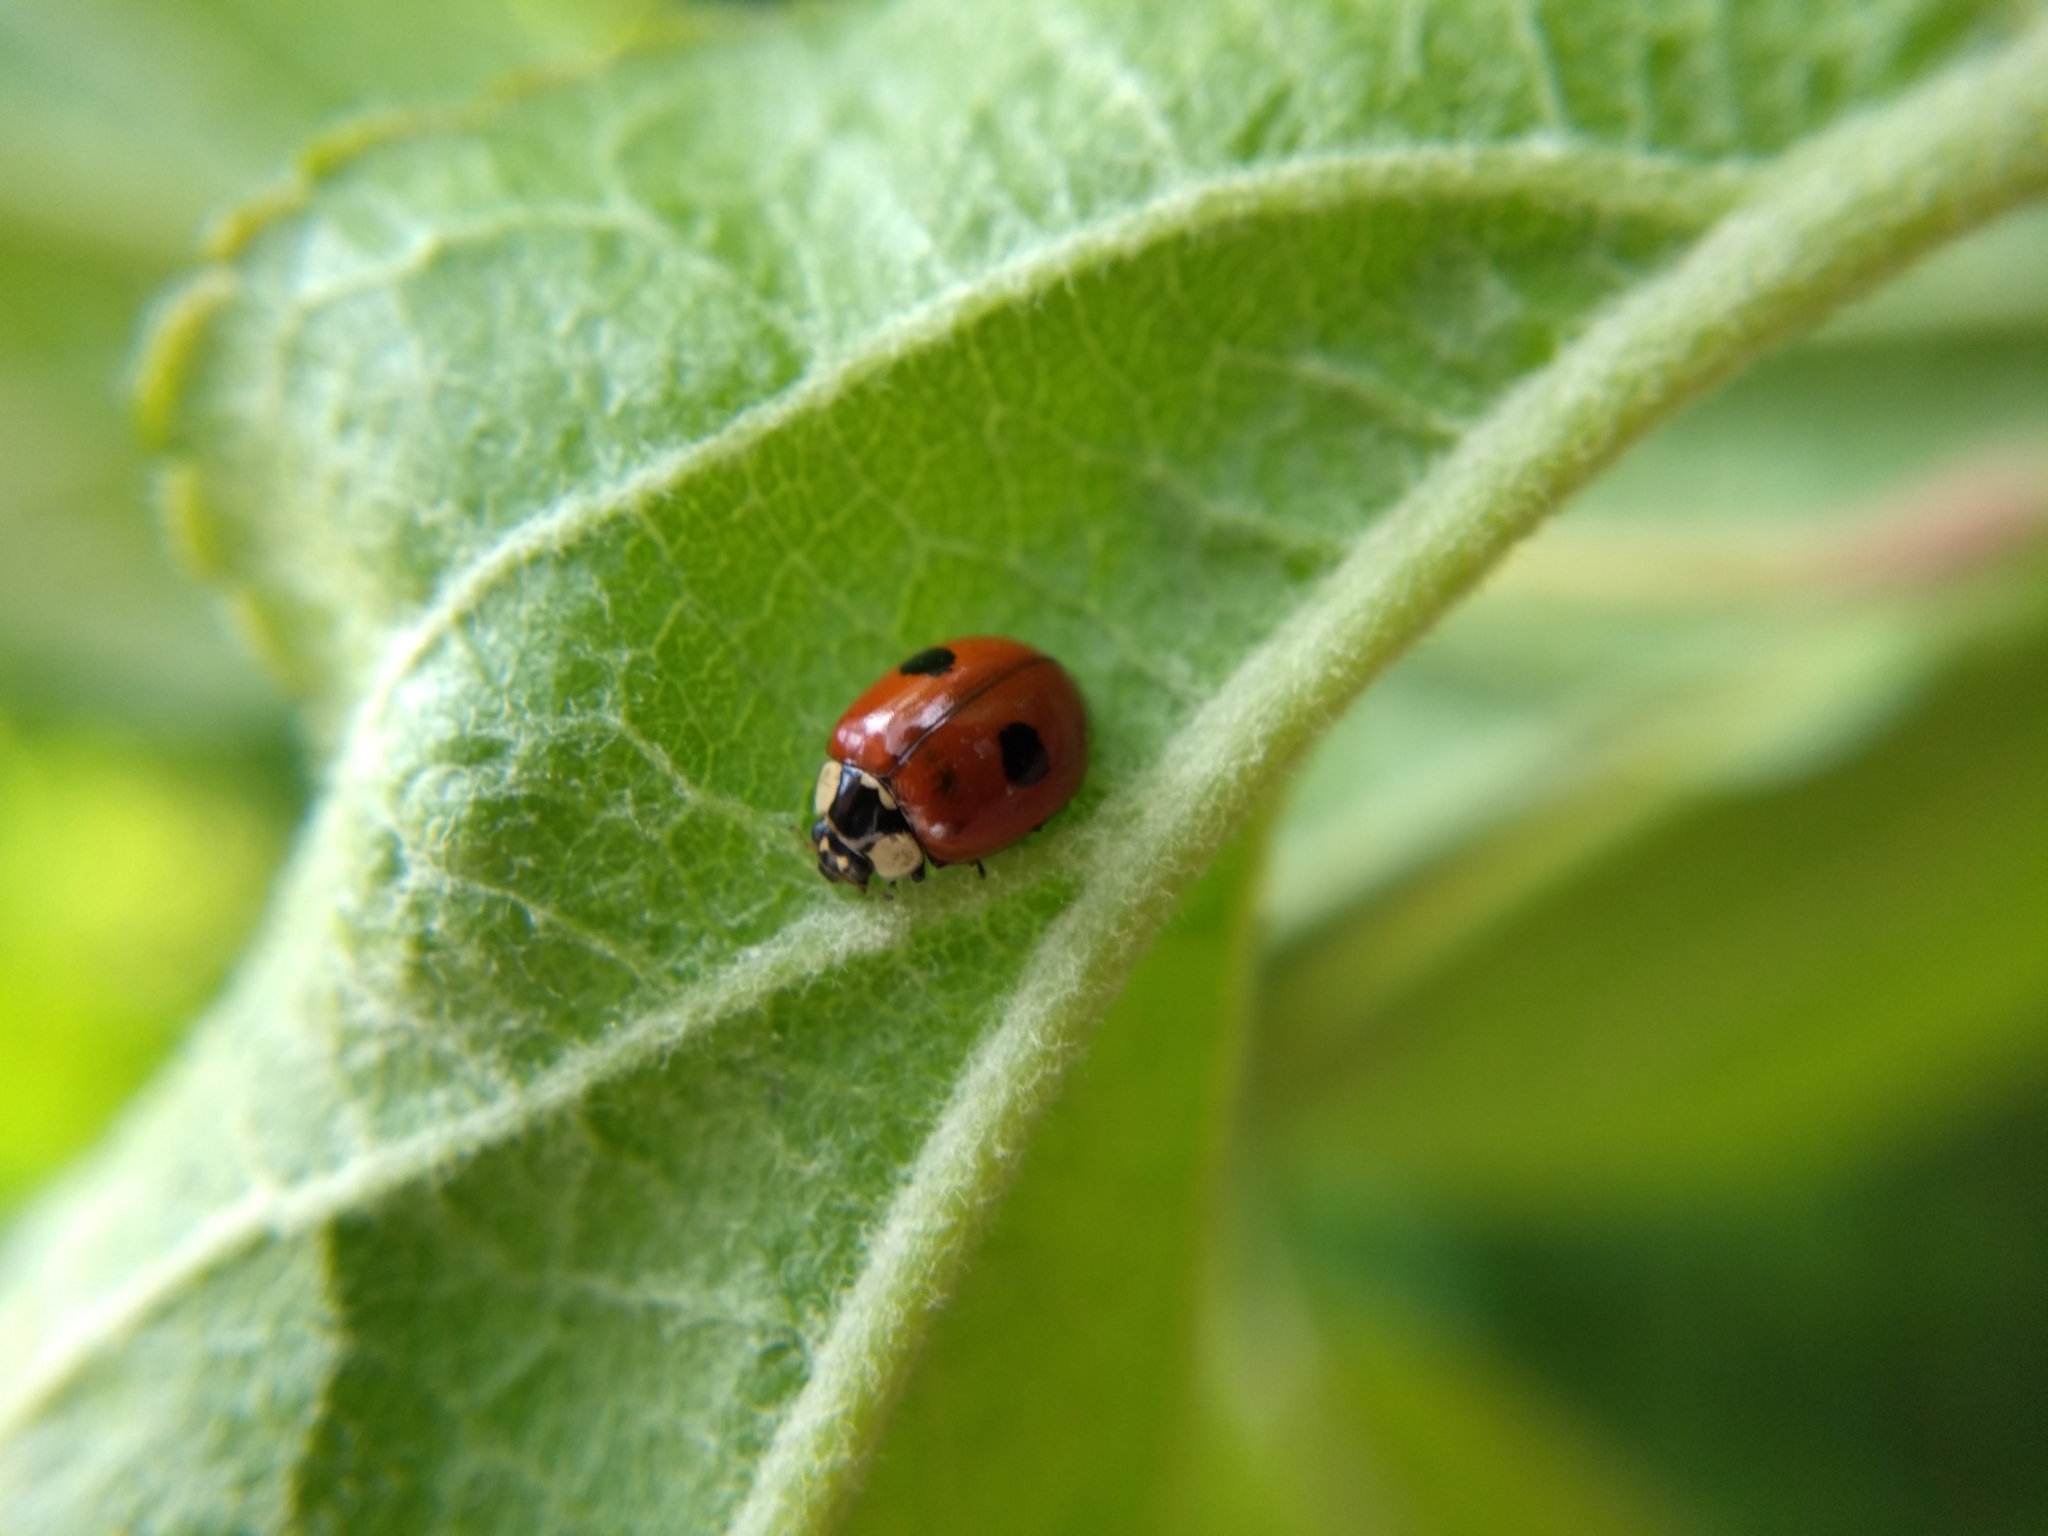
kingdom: Animalia
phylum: Arthropoda
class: Insecta
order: Coleoptera
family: Coccinellidae
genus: Adalia
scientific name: Adalia bipunctata
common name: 2-spot ladybird
